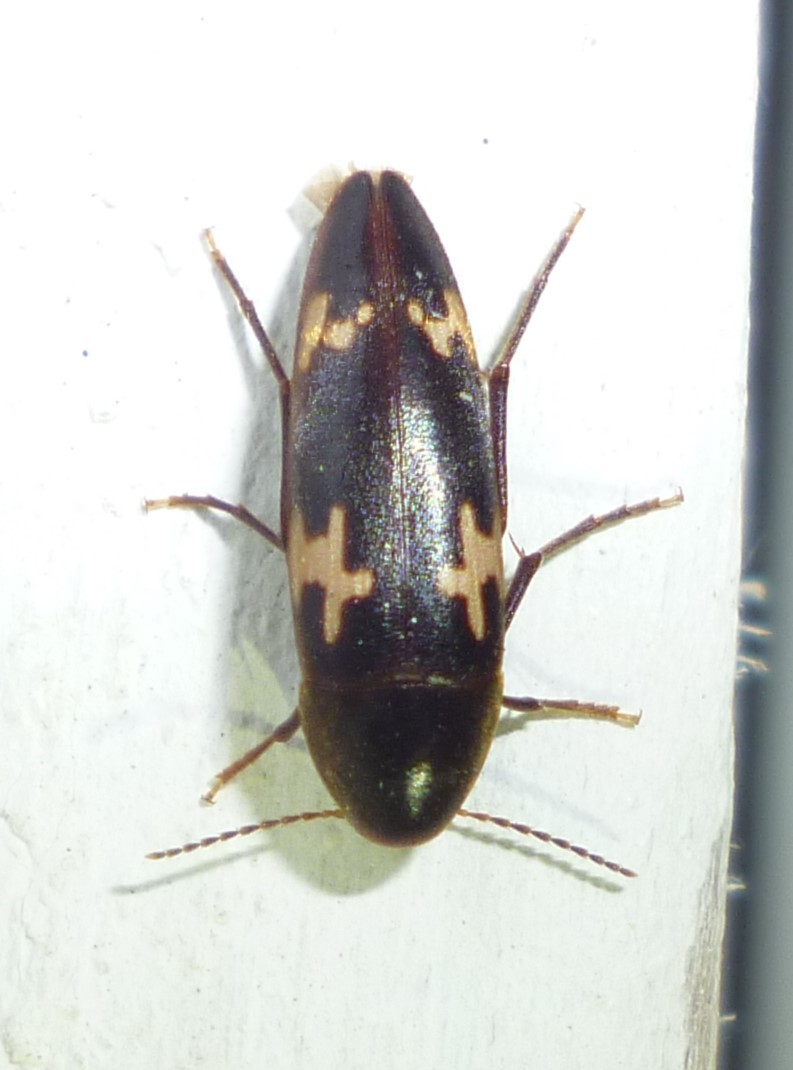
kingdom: Animalia
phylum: Arthropoda
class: Insecta
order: Coleoptera
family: Melandryidae
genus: Dircaea
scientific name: Dircaea liturata
